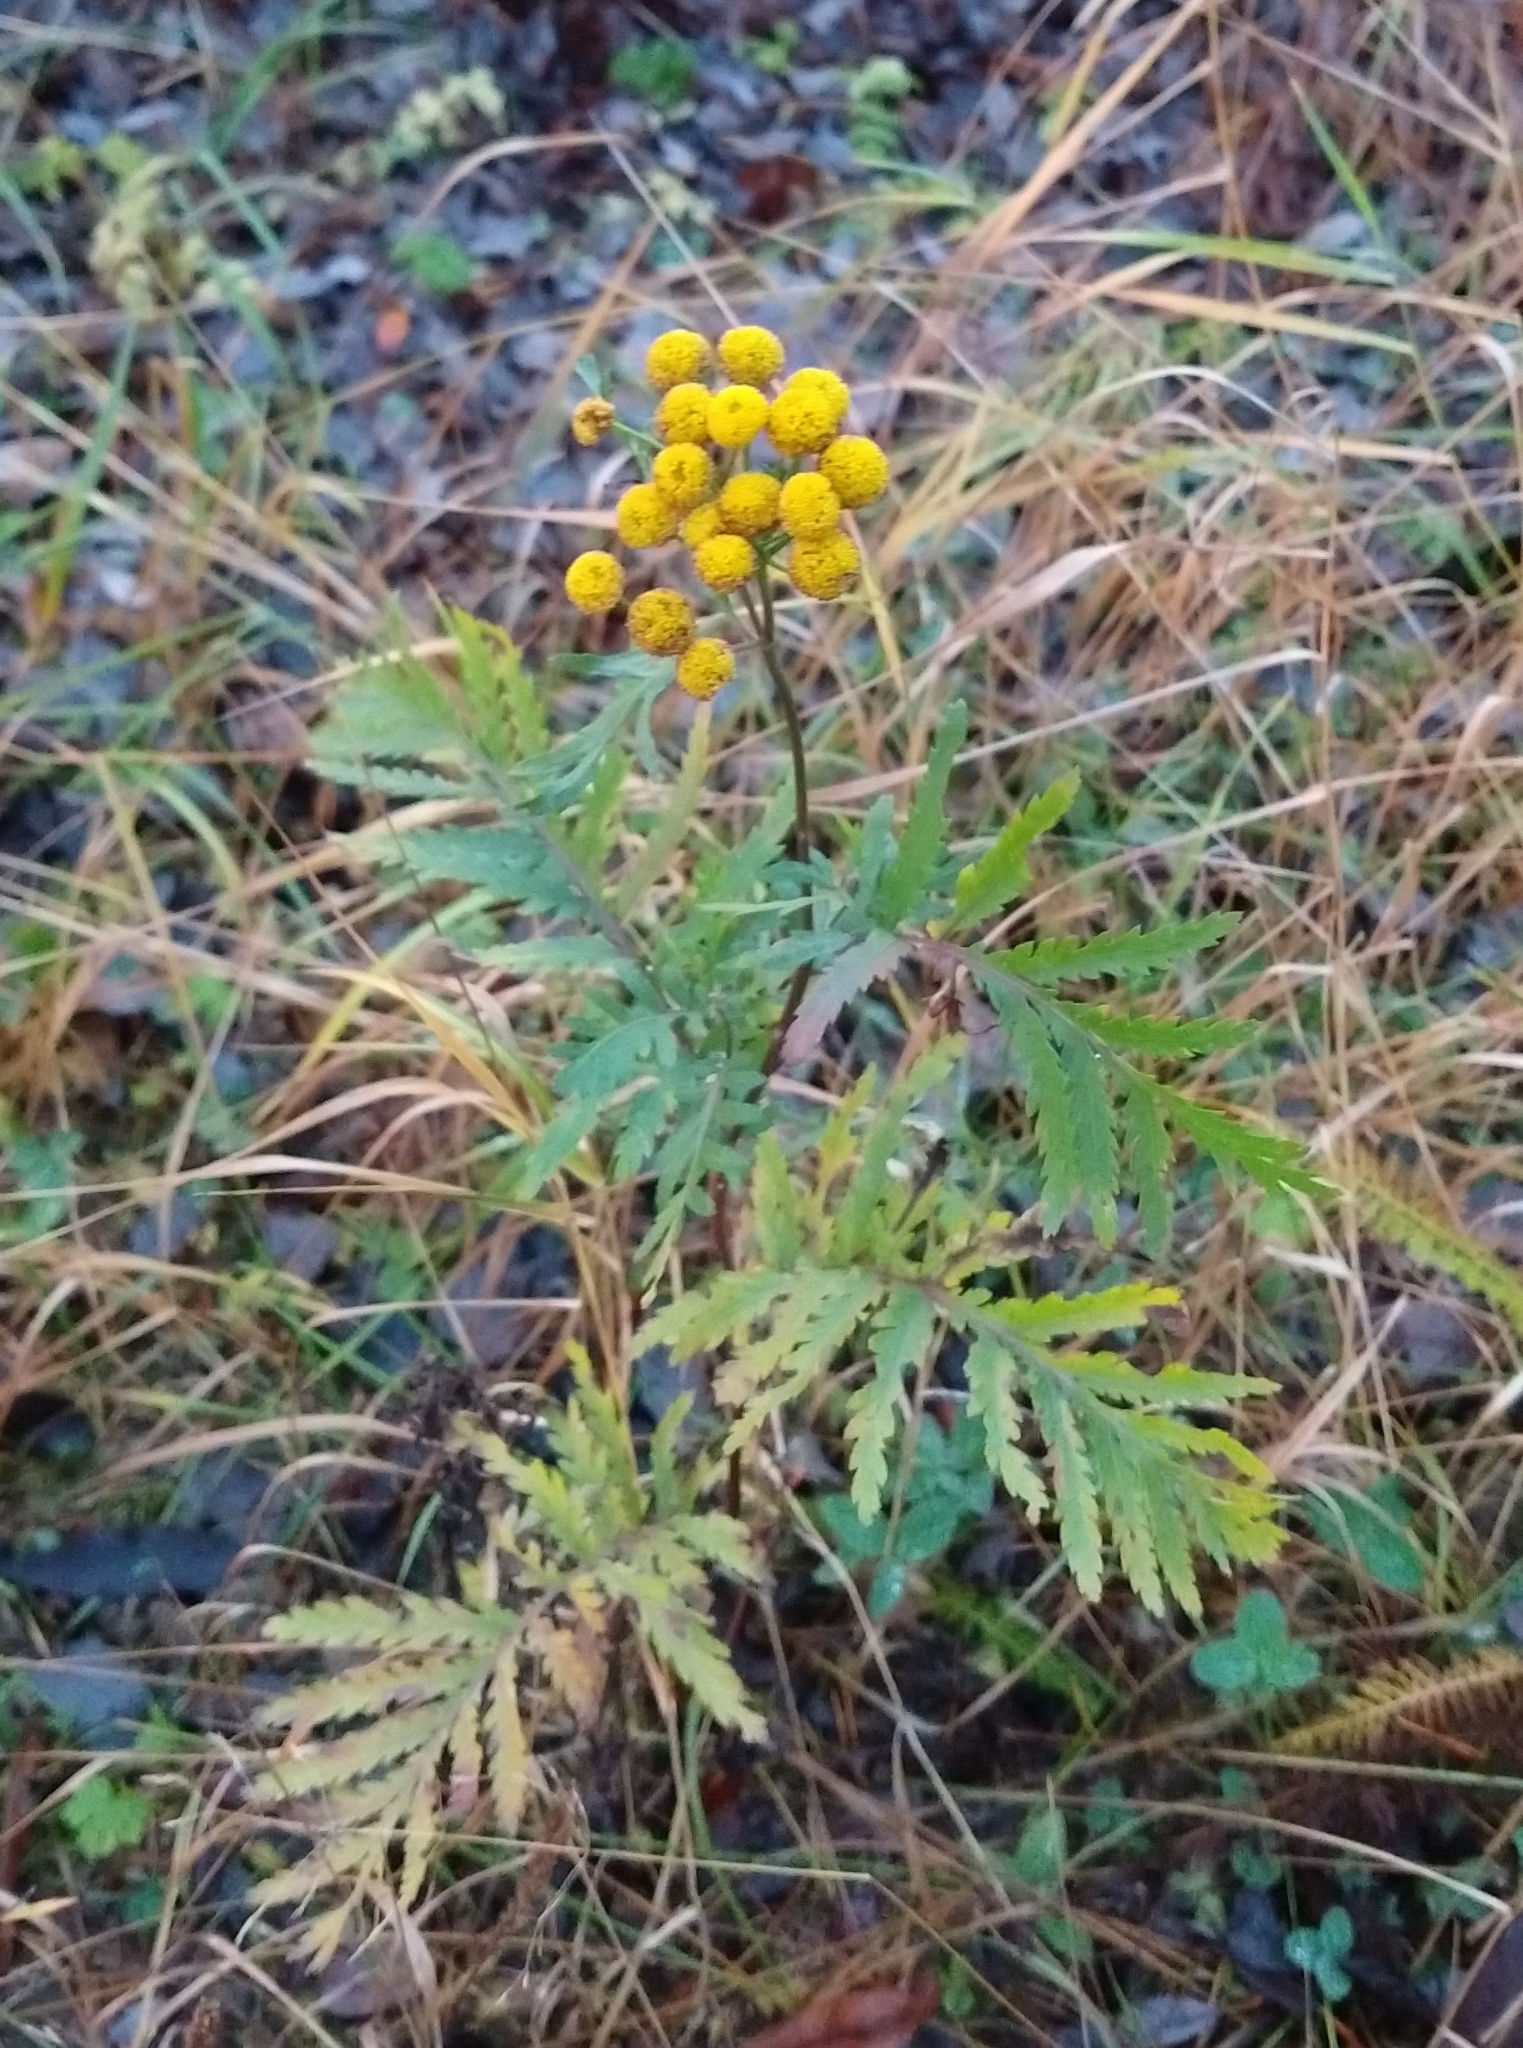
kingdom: Plantae
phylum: Tracheophyta
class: Magnoliopsida
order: Asterales
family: Asteraceae
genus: Tanacetum
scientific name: Tanacetum vulgare
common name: Common tansy
